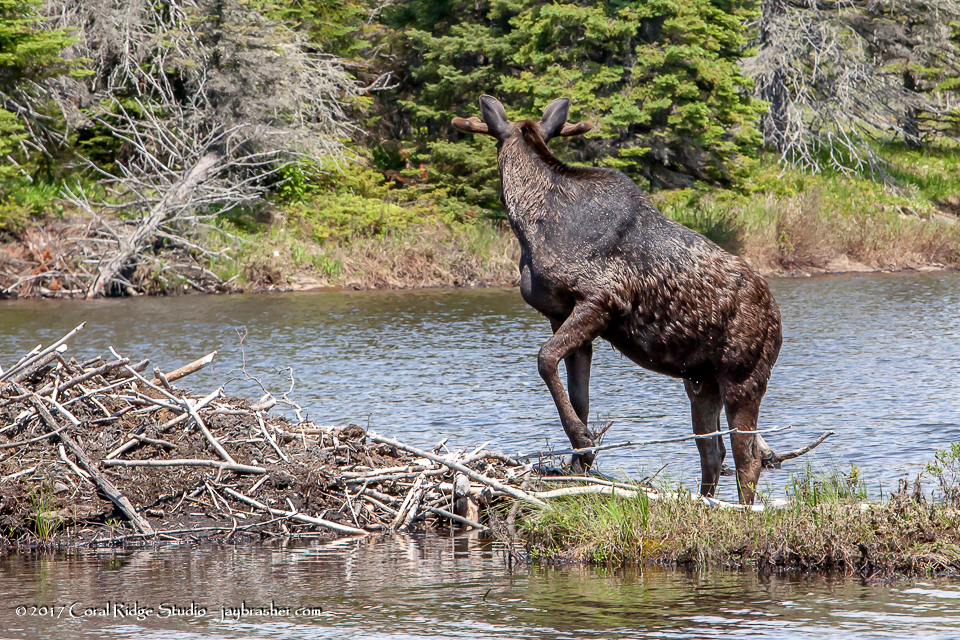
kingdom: Animalia
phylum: Chordata
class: Mammalia
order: Artiodactyla
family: Cervidae
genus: Alces
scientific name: Alces alces
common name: Moose
